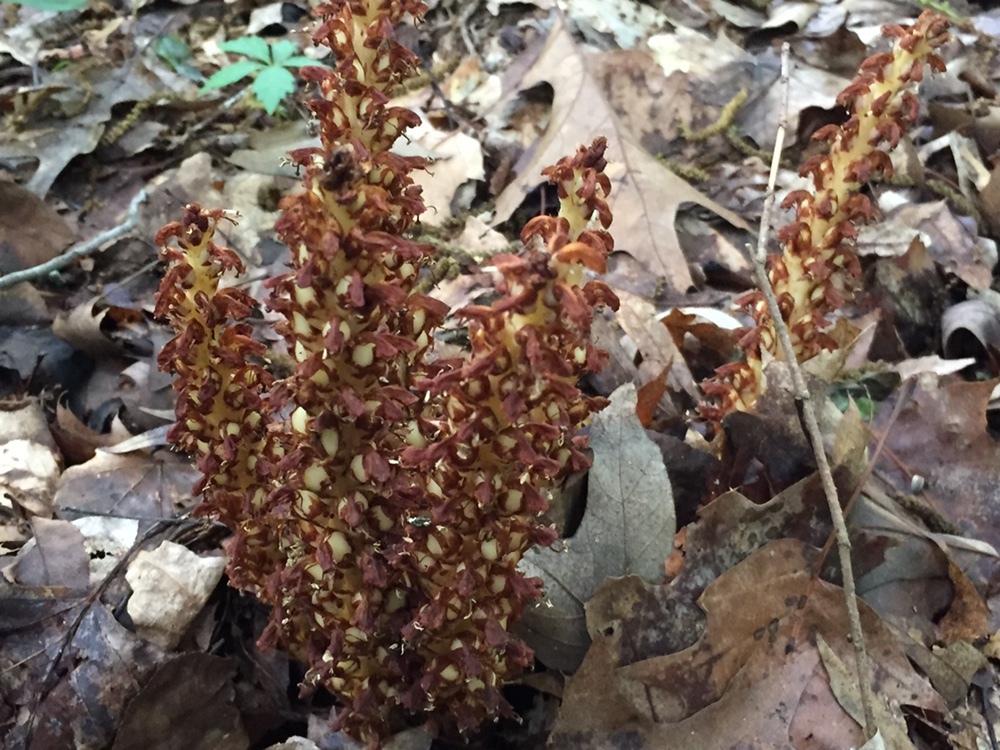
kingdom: Plantae
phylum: Tracheophyta
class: Magnoliopsida
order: Lamiales
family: Orobanchaceae
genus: Conopholis
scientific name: Conopholis americana
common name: American cancer-root
